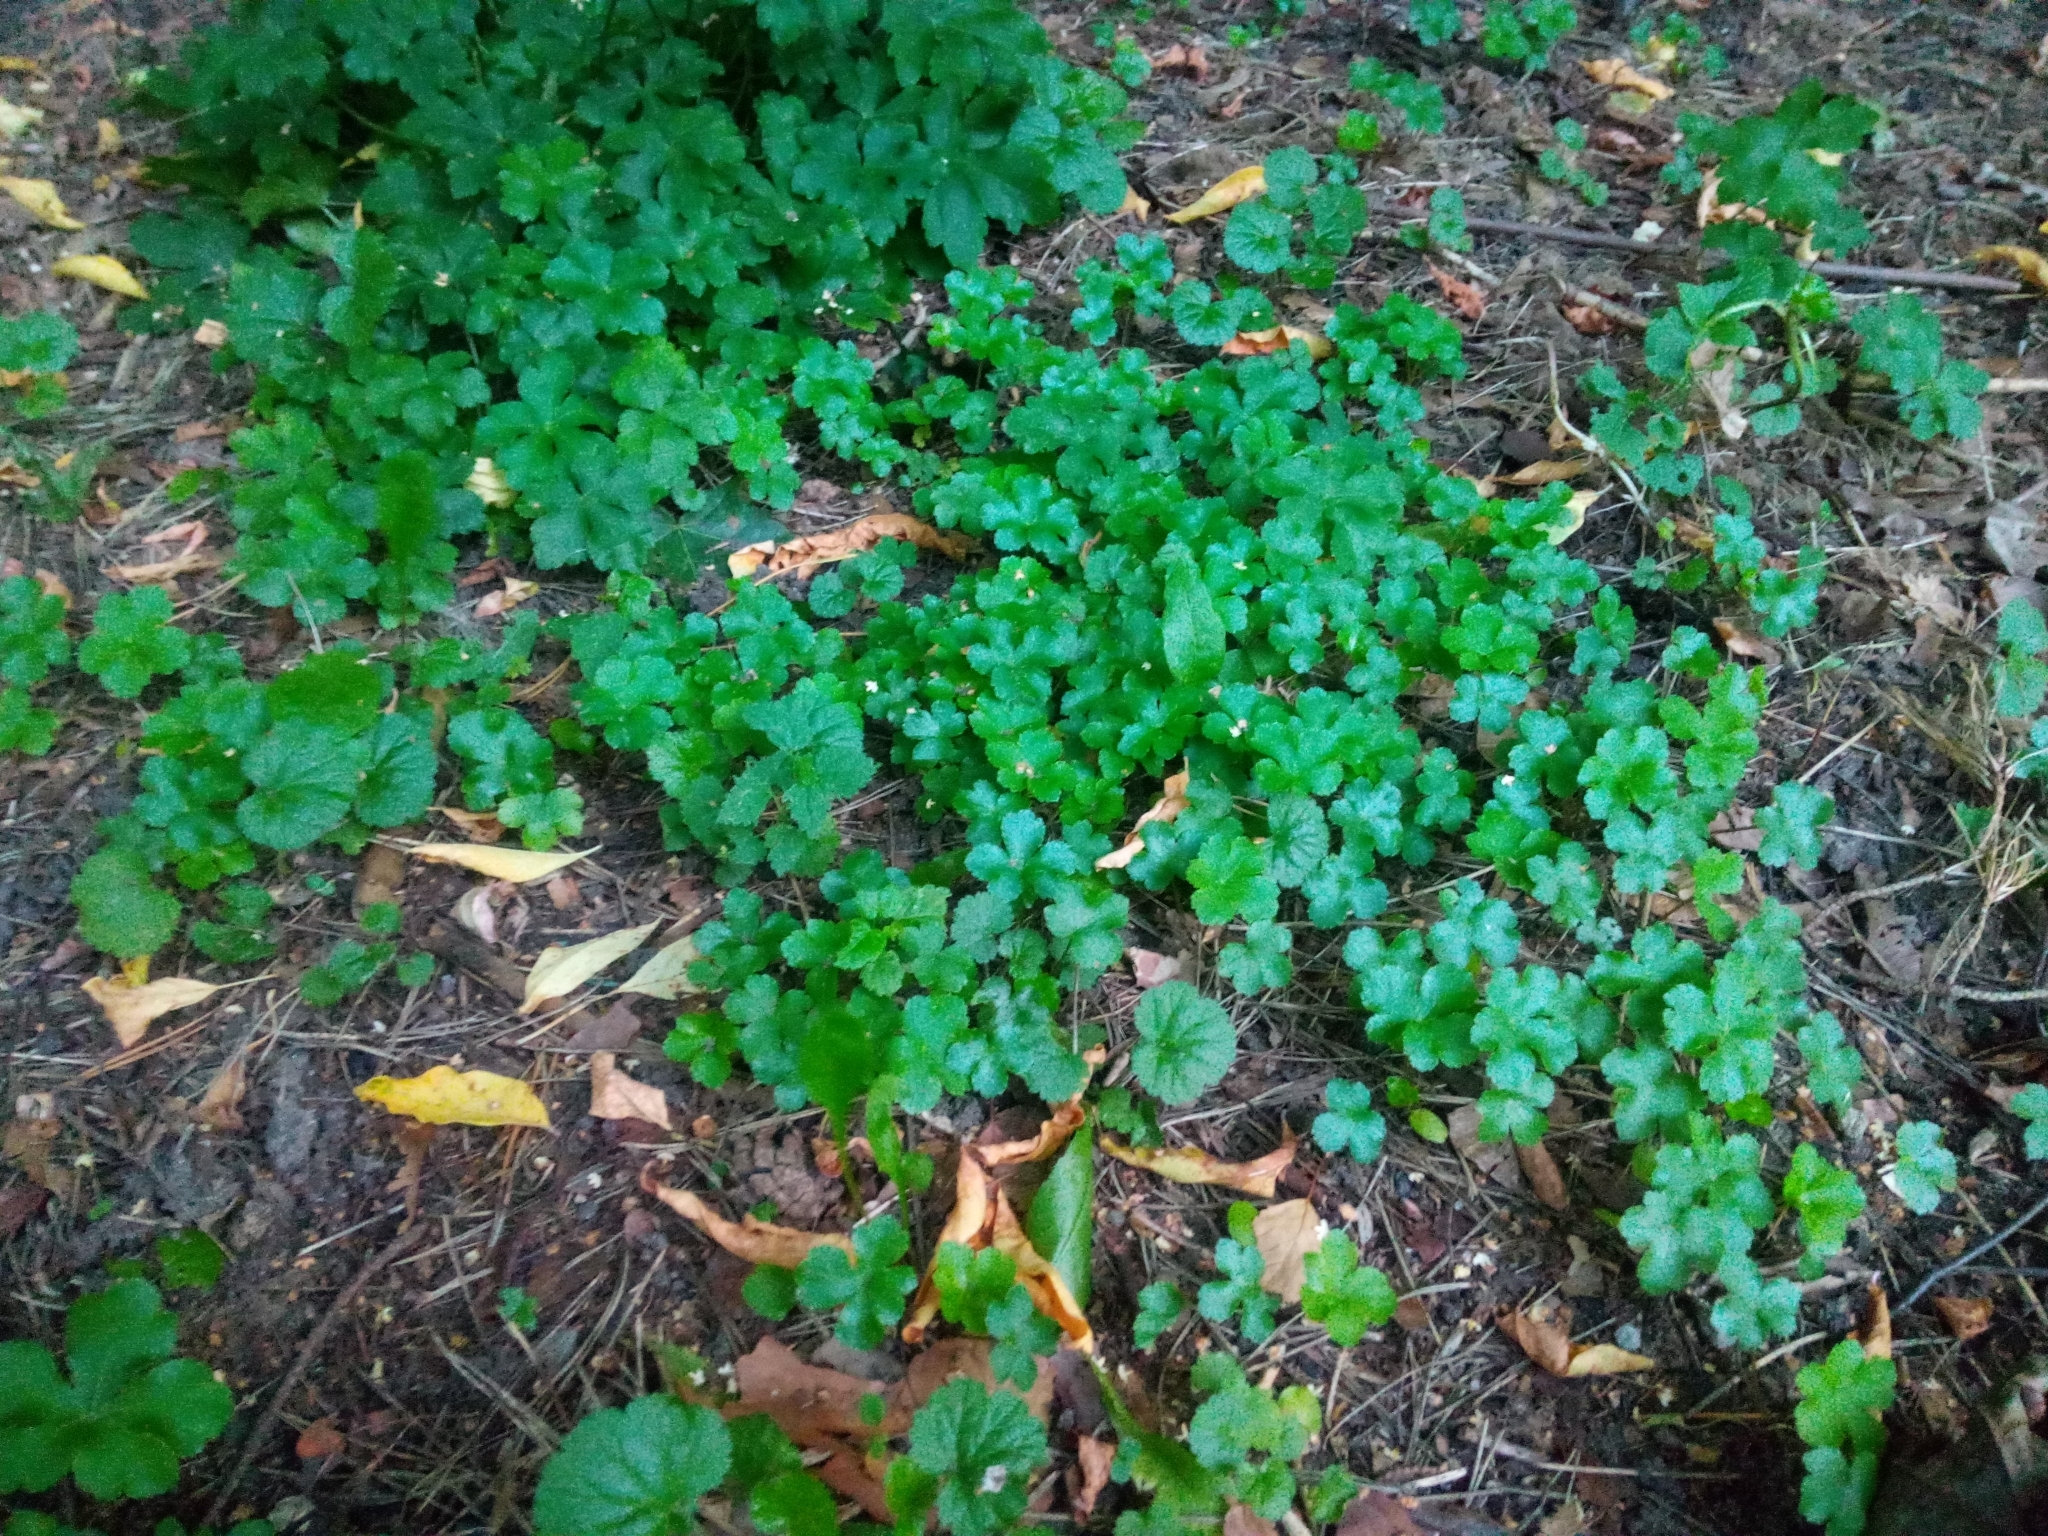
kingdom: Plantae
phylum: Tracheophyta
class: Magnoliopsida
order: Apiales
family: Apiaceae
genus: Sanicula
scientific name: Sanicula europaea
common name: Sanicle
